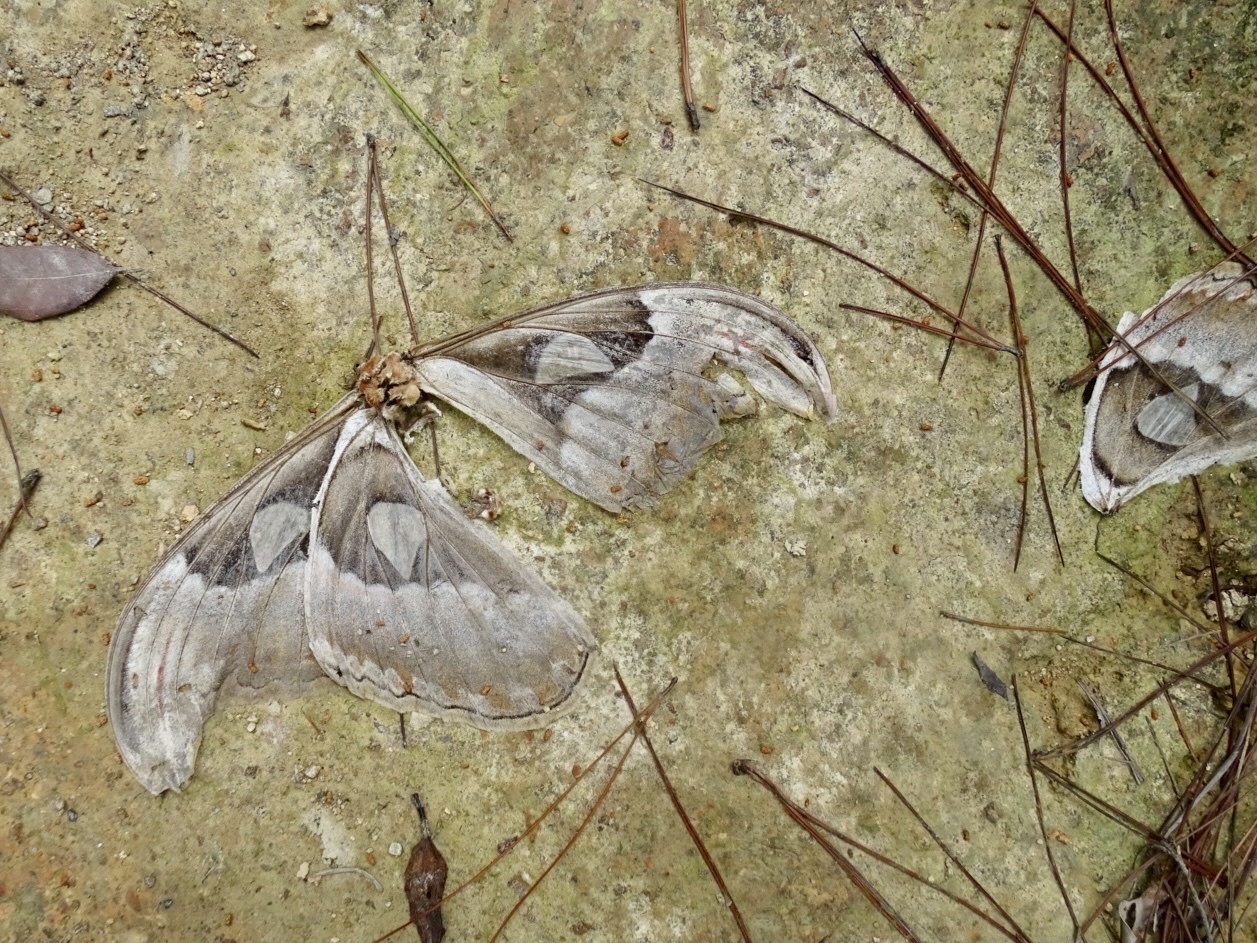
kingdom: Animalia
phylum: Arthropoda
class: Insecta
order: Lepidoptera
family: Saturniidae
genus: Attacus
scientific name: Attacus atlas
